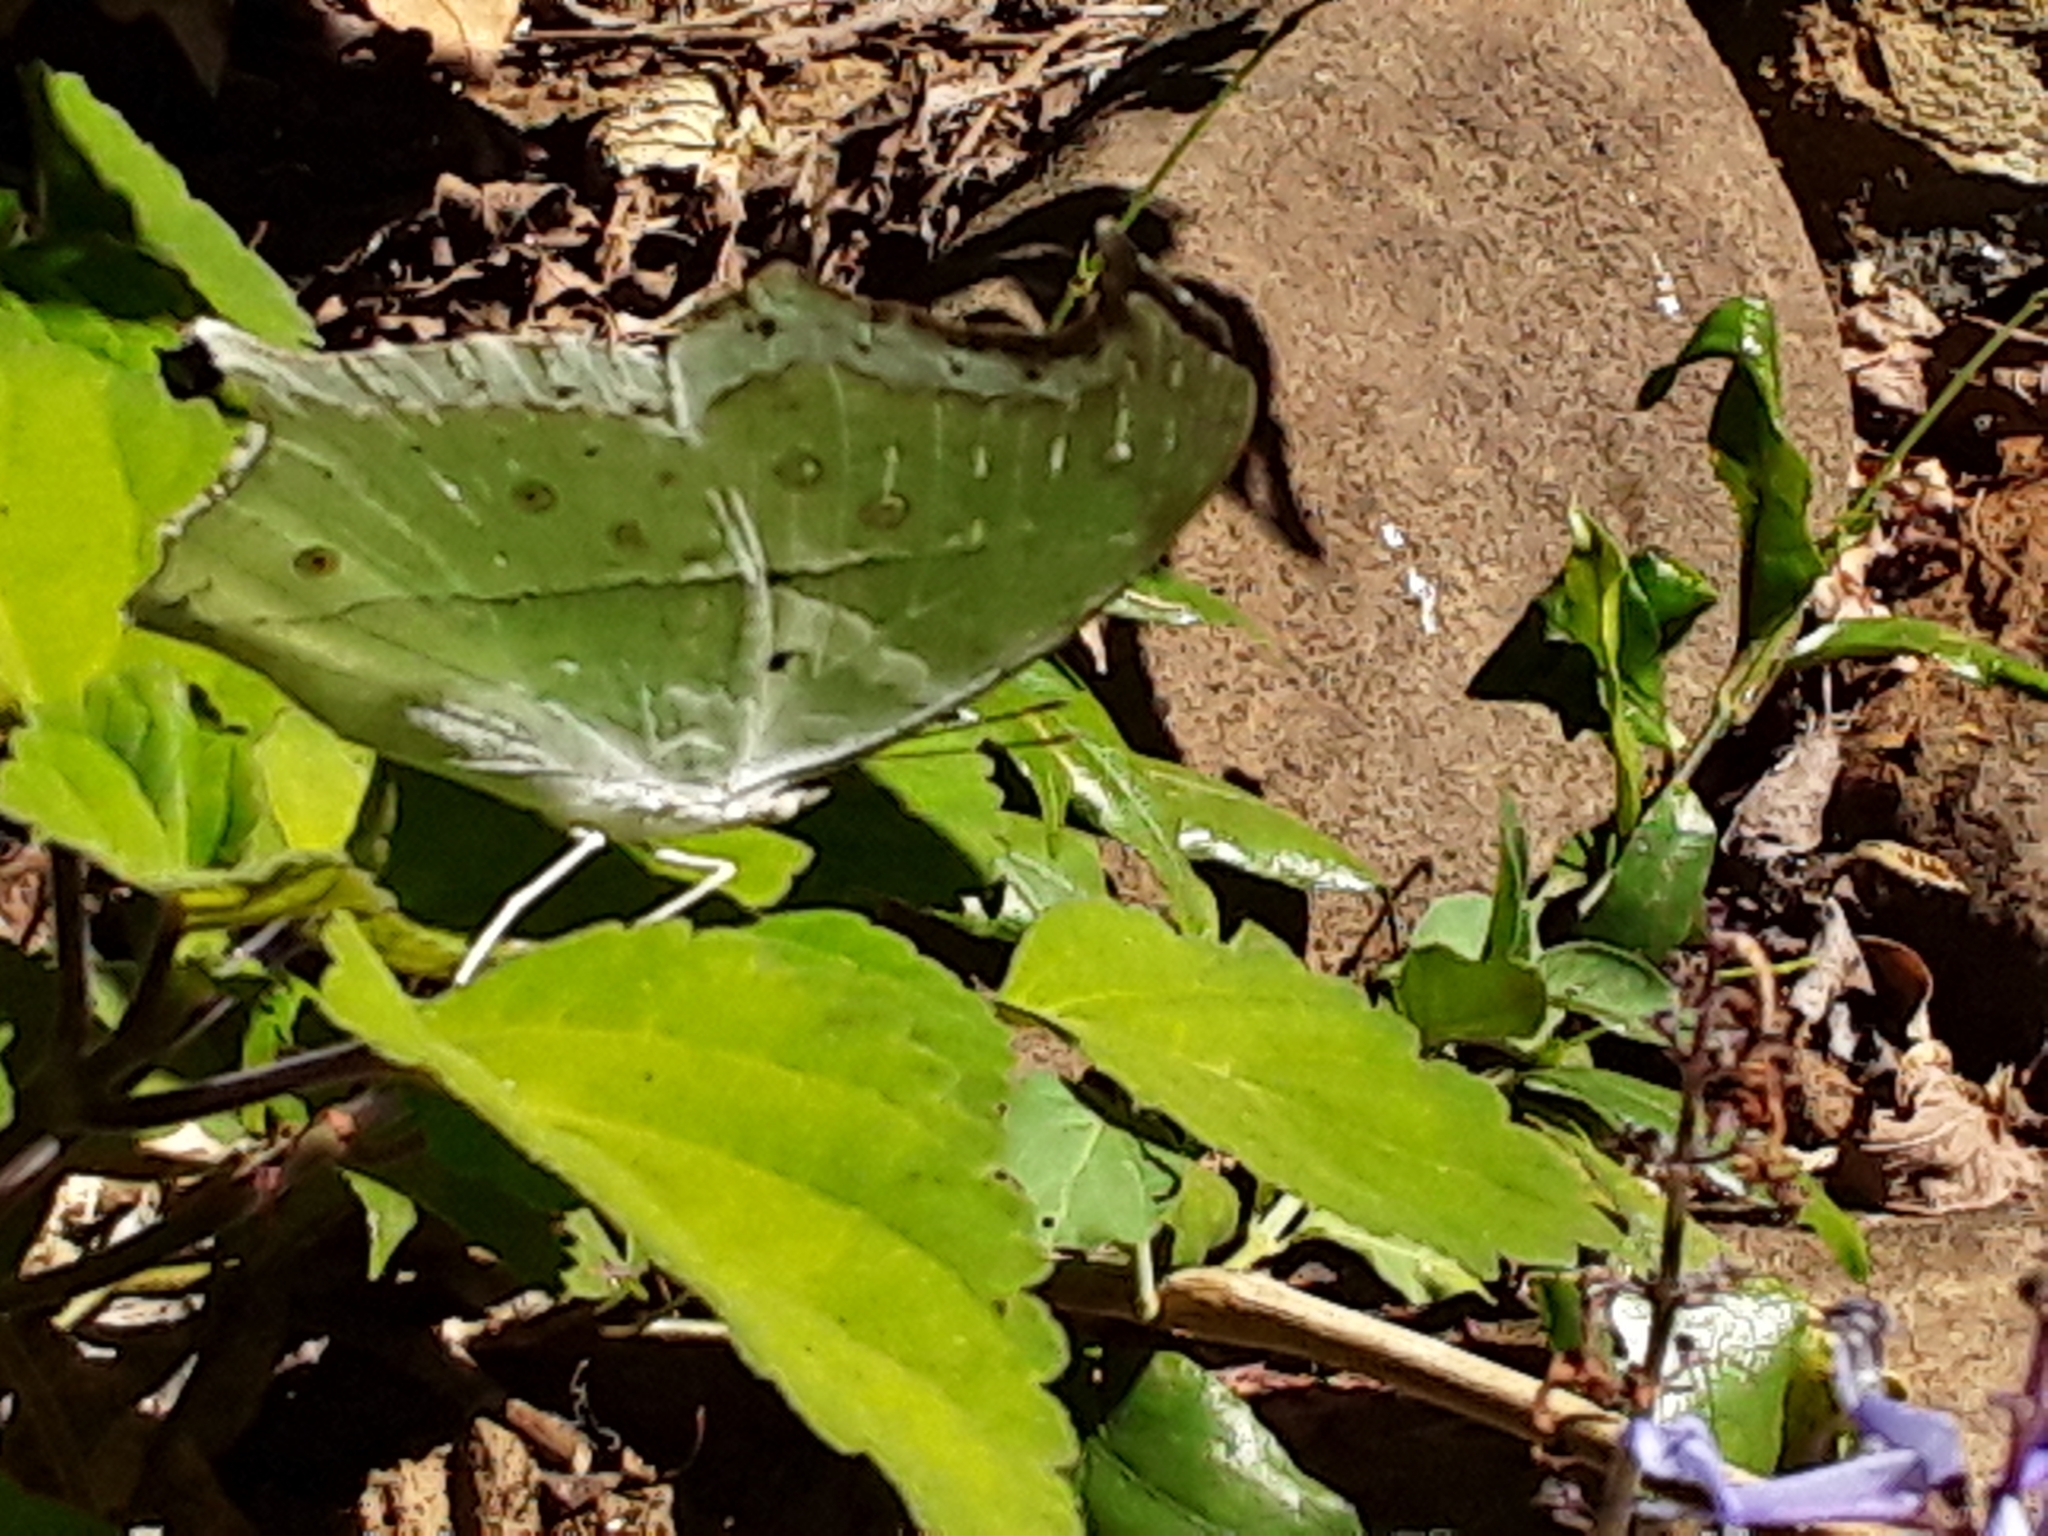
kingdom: Animalia
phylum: Arthropoda
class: Insecta
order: Lepidoptera
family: Nymphalidae
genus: Salamis
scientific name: Salamis Protogoniomorpha parhassus
